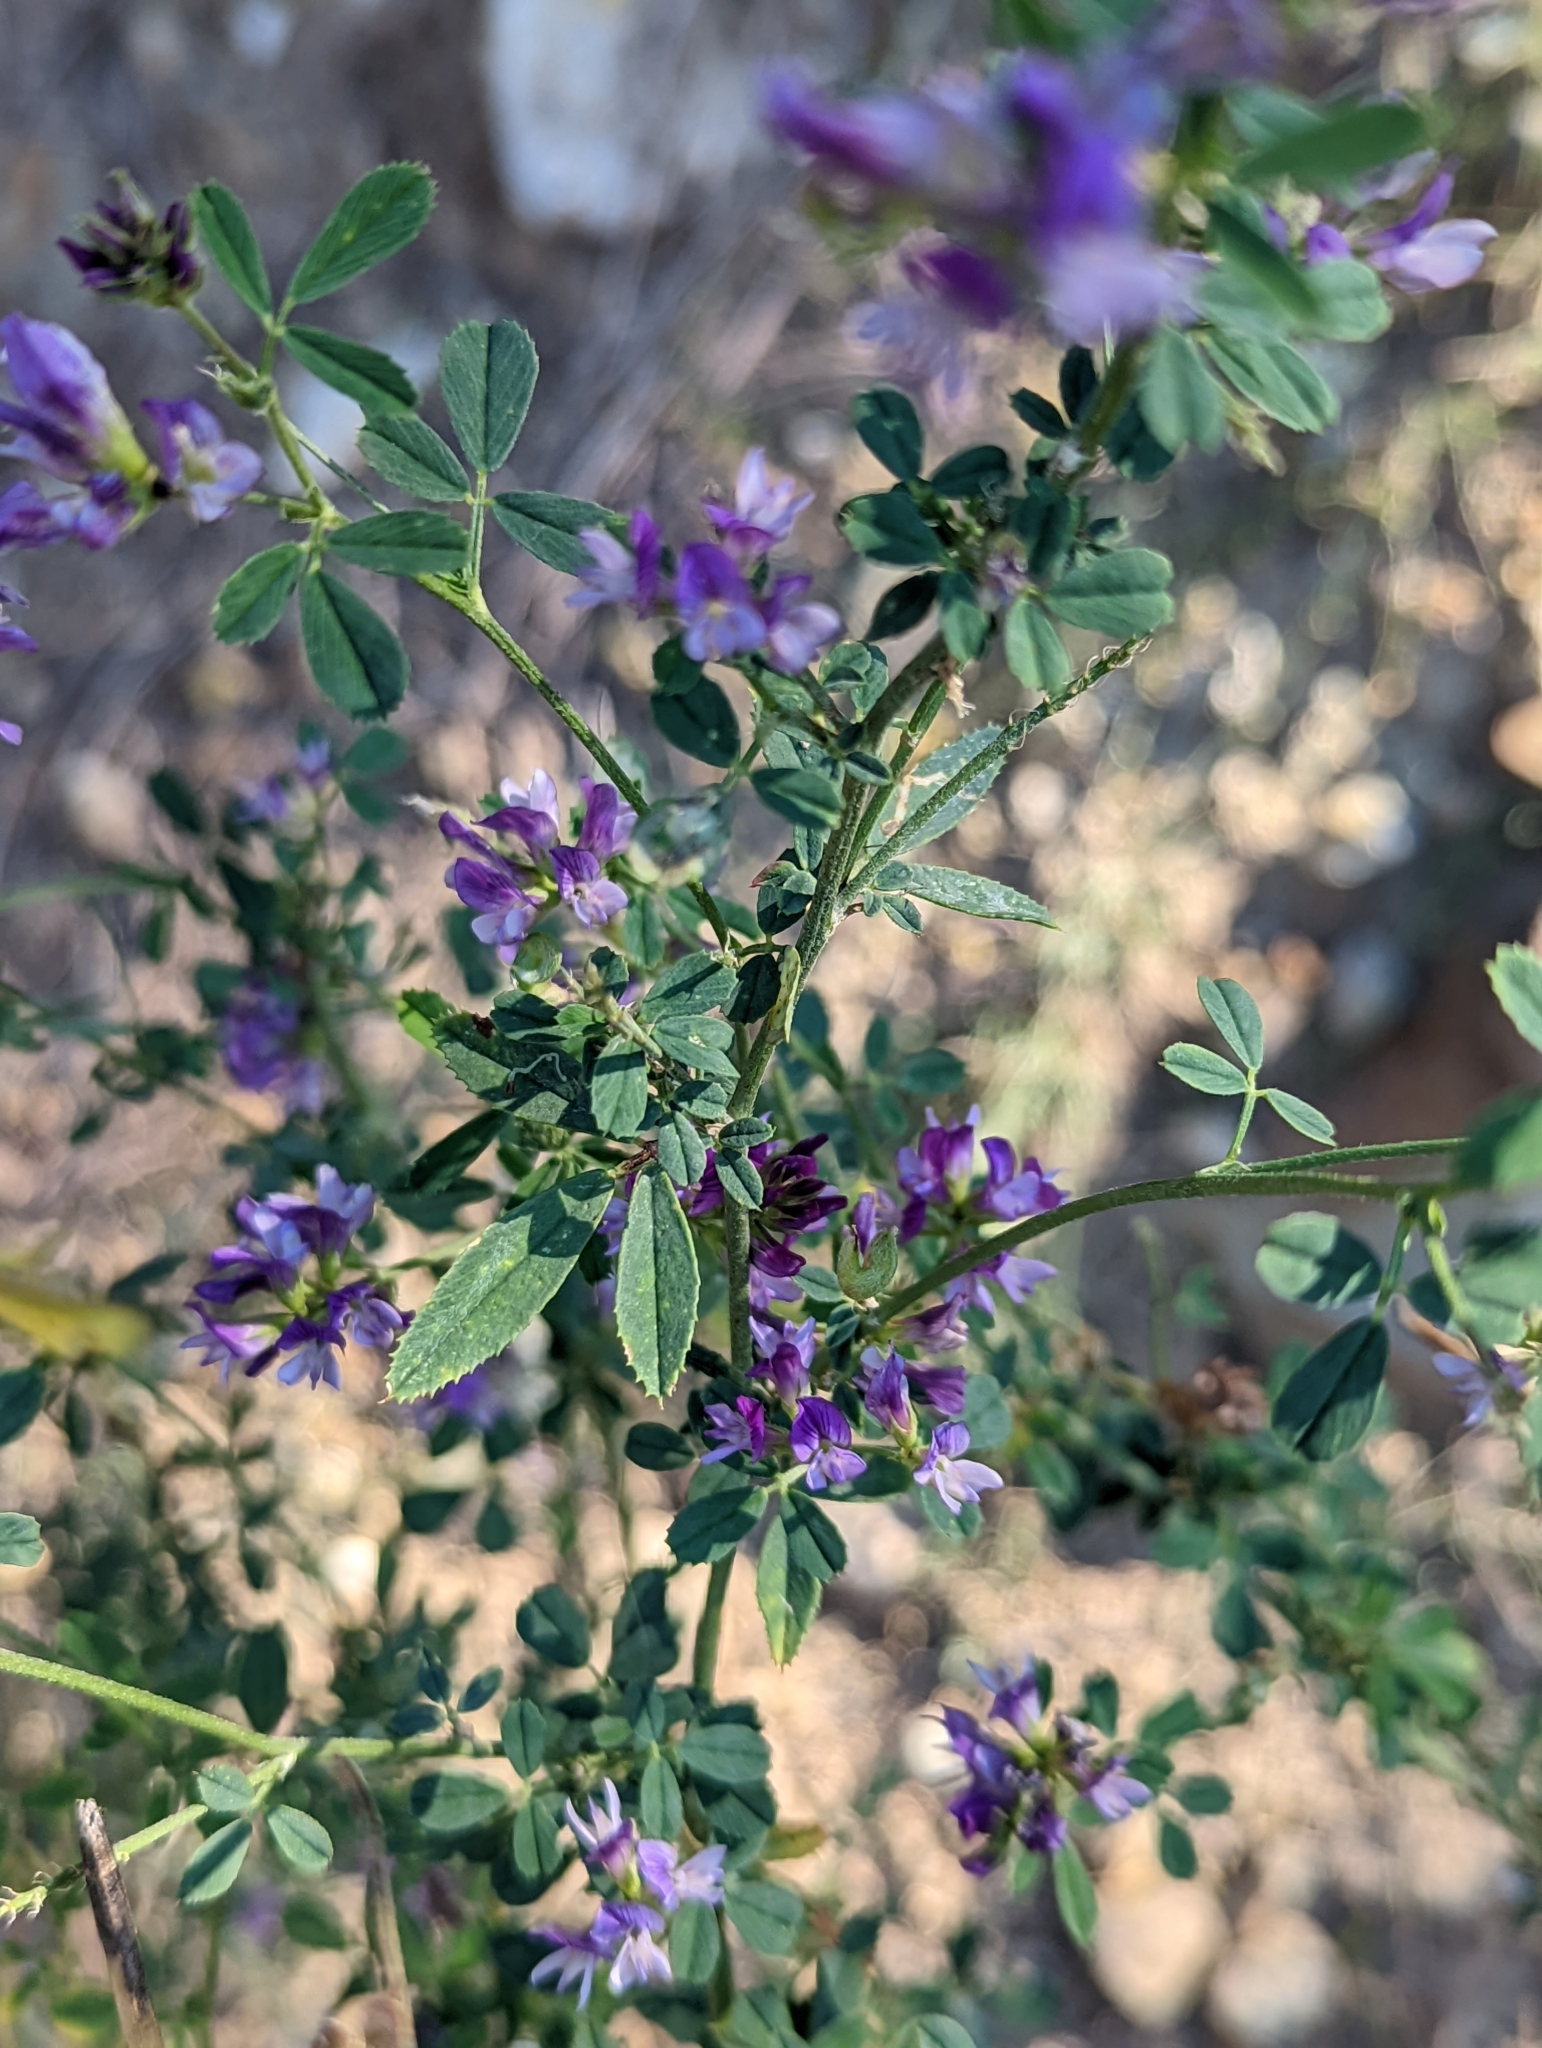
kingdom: Plantae
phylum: Tracheophyta
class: Magnoliopsida
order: Fabales
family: Fabaceae
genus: Medicago
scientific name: Medicago sativa
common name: Alfalfa
